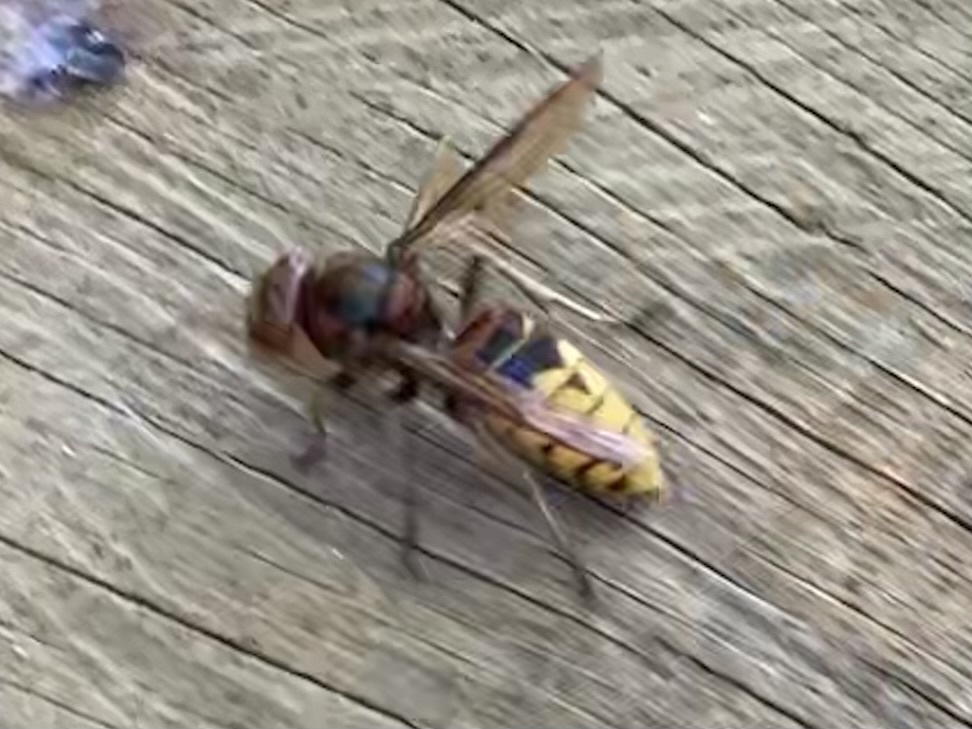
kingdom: Animalia
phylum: Arthropoda
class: Insecta
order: Hymenoptera
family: Vespidae
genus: Vespa
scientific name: Vespa crabro
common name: Hornet
